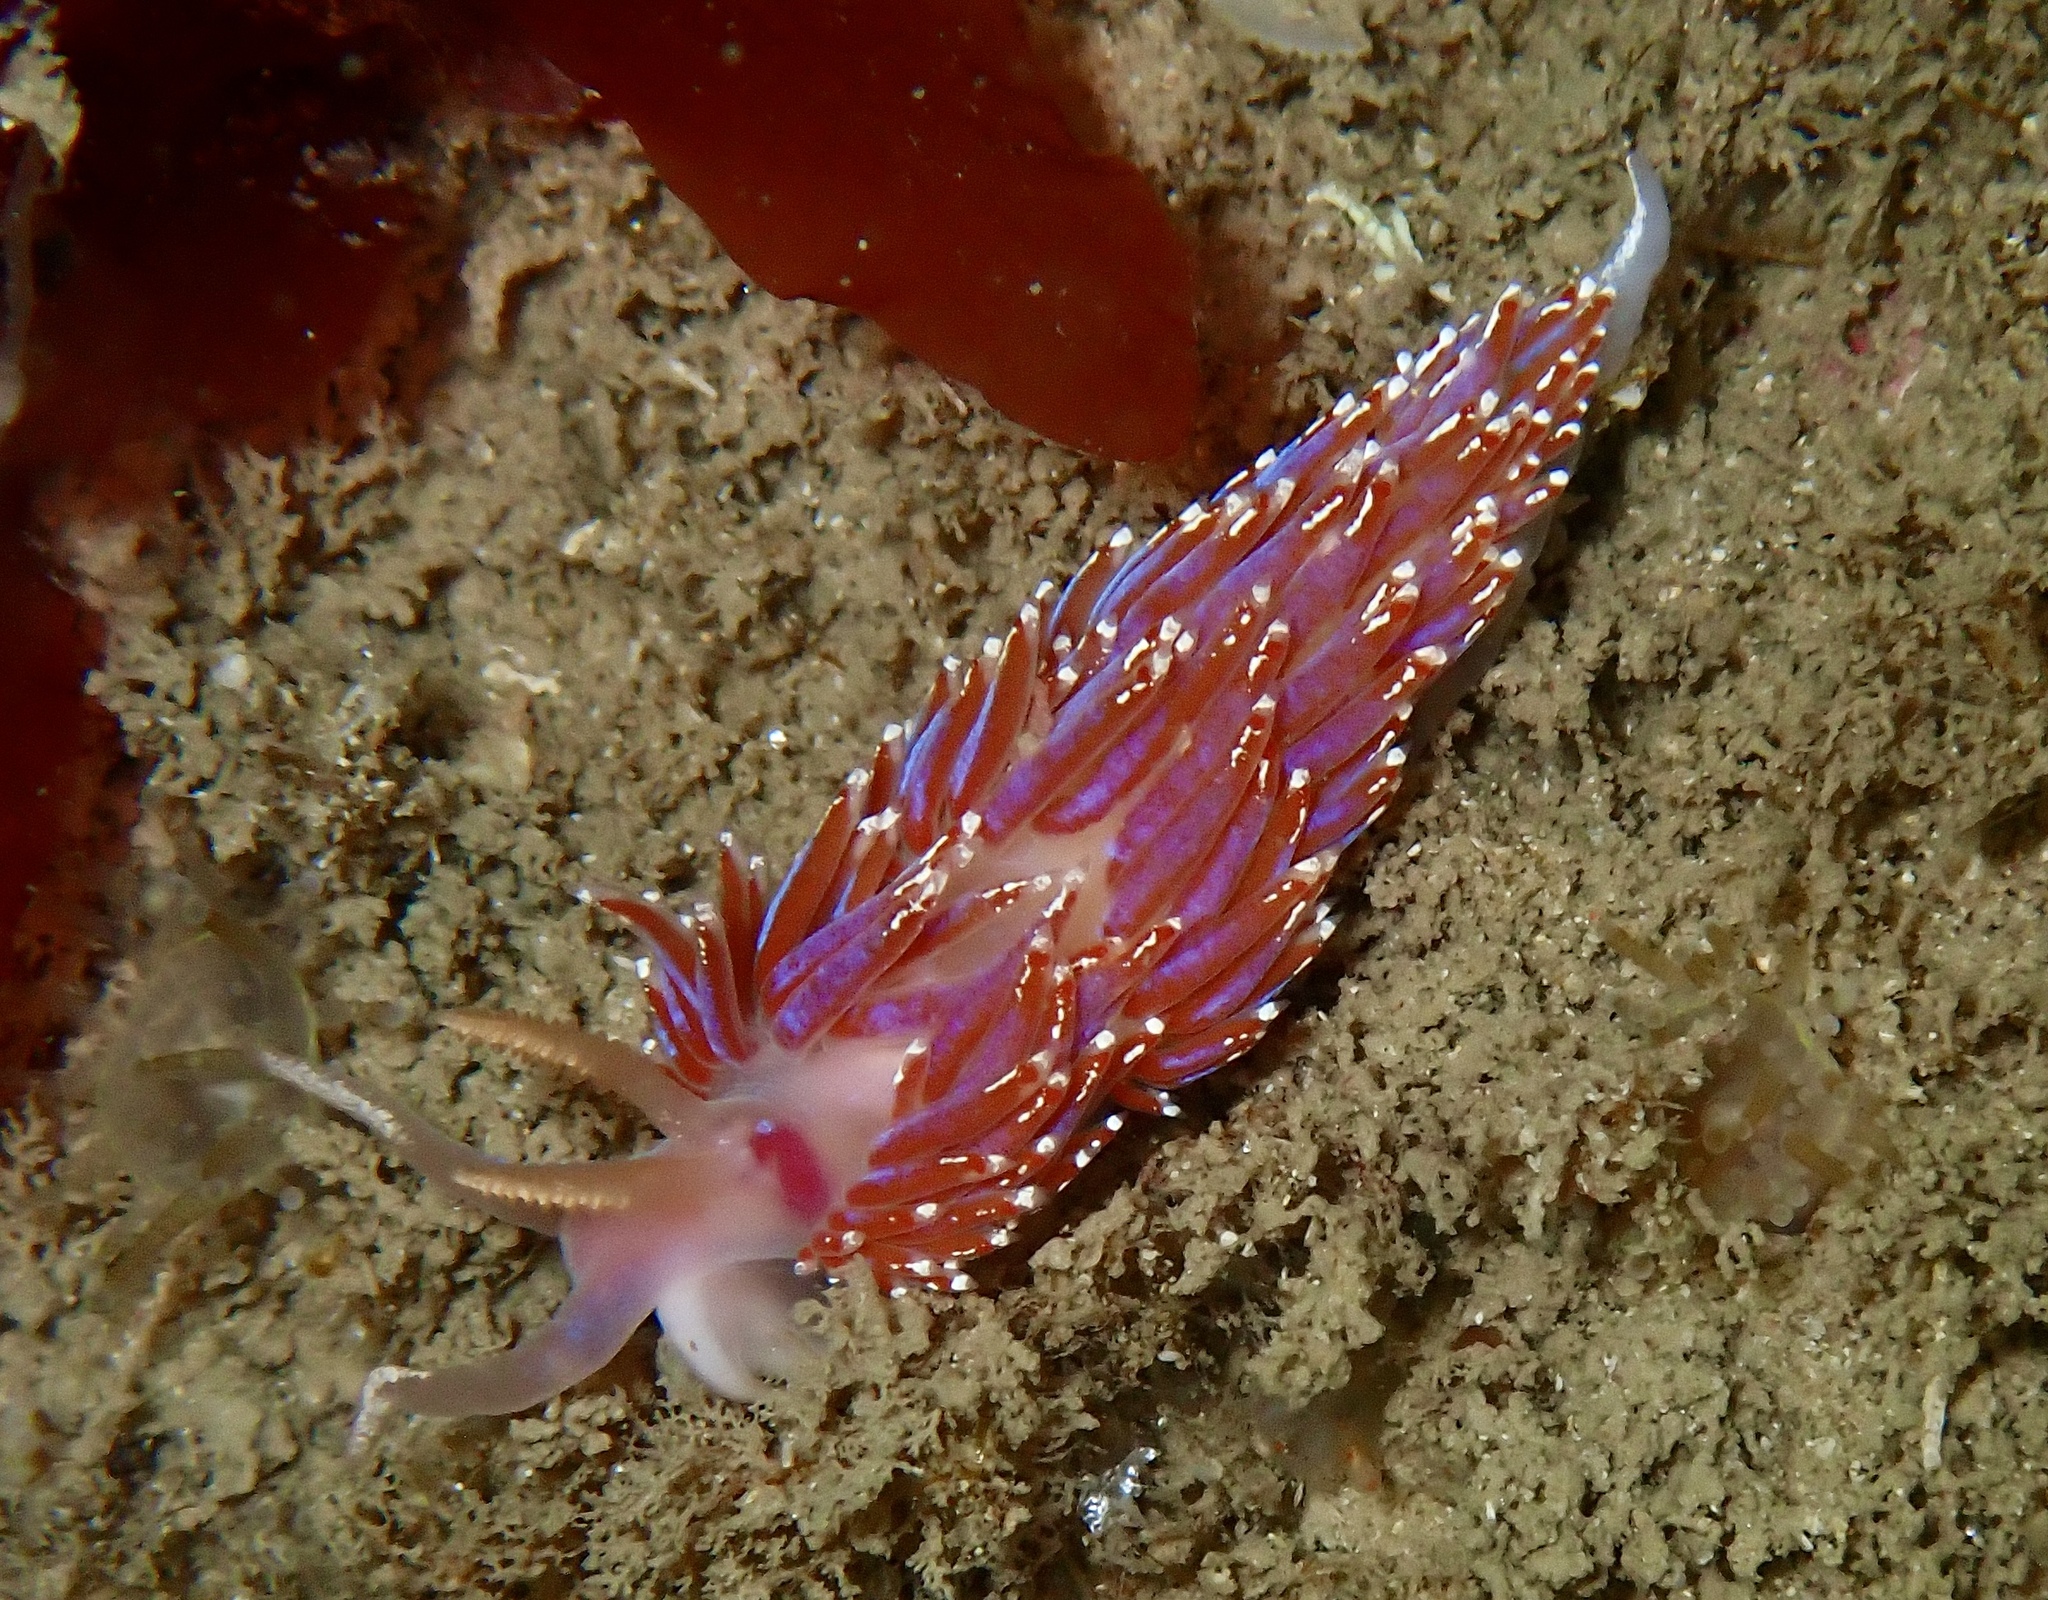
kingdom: Animalia
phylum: Mollusca
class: Gastropoda
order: Nudibranchia
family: Facelinidae
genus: Facelina
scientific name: Facelina auriculata
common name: Slender facelina
